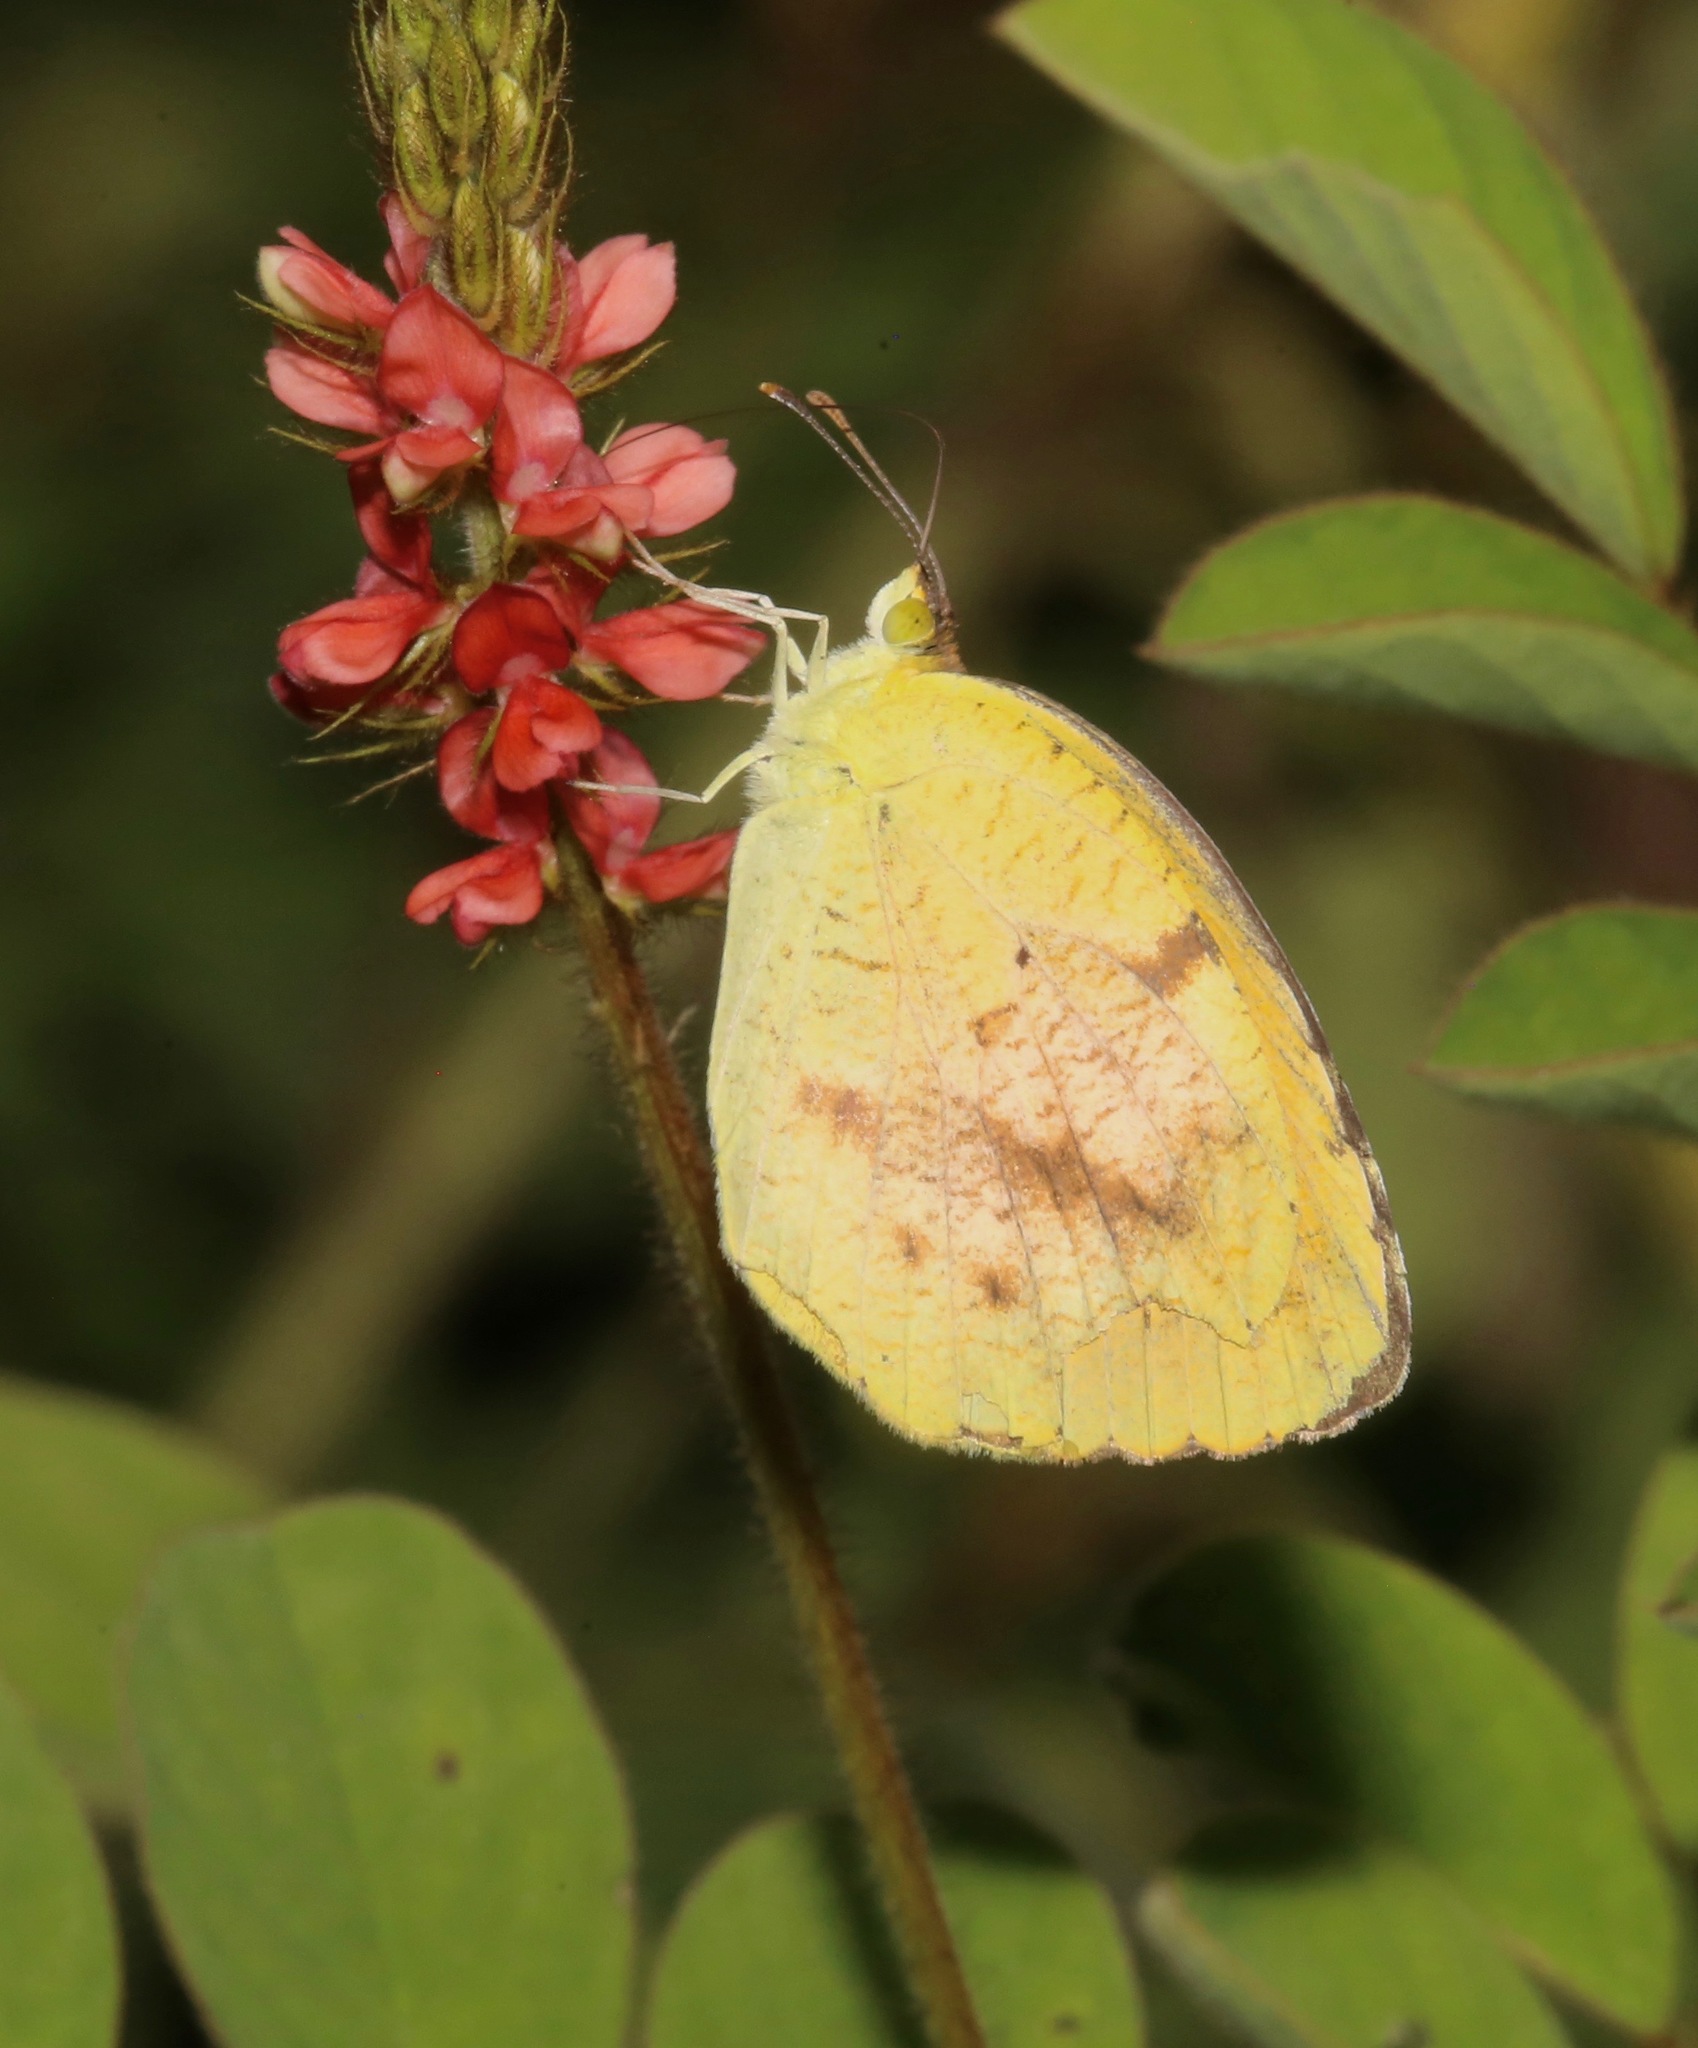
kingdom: Animalia
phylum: Arthropoda
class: Insecta
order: Lepidoptera
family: Pieridae
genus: Abaeis
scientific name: Abaeis nicippe
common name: Sleepy orange
